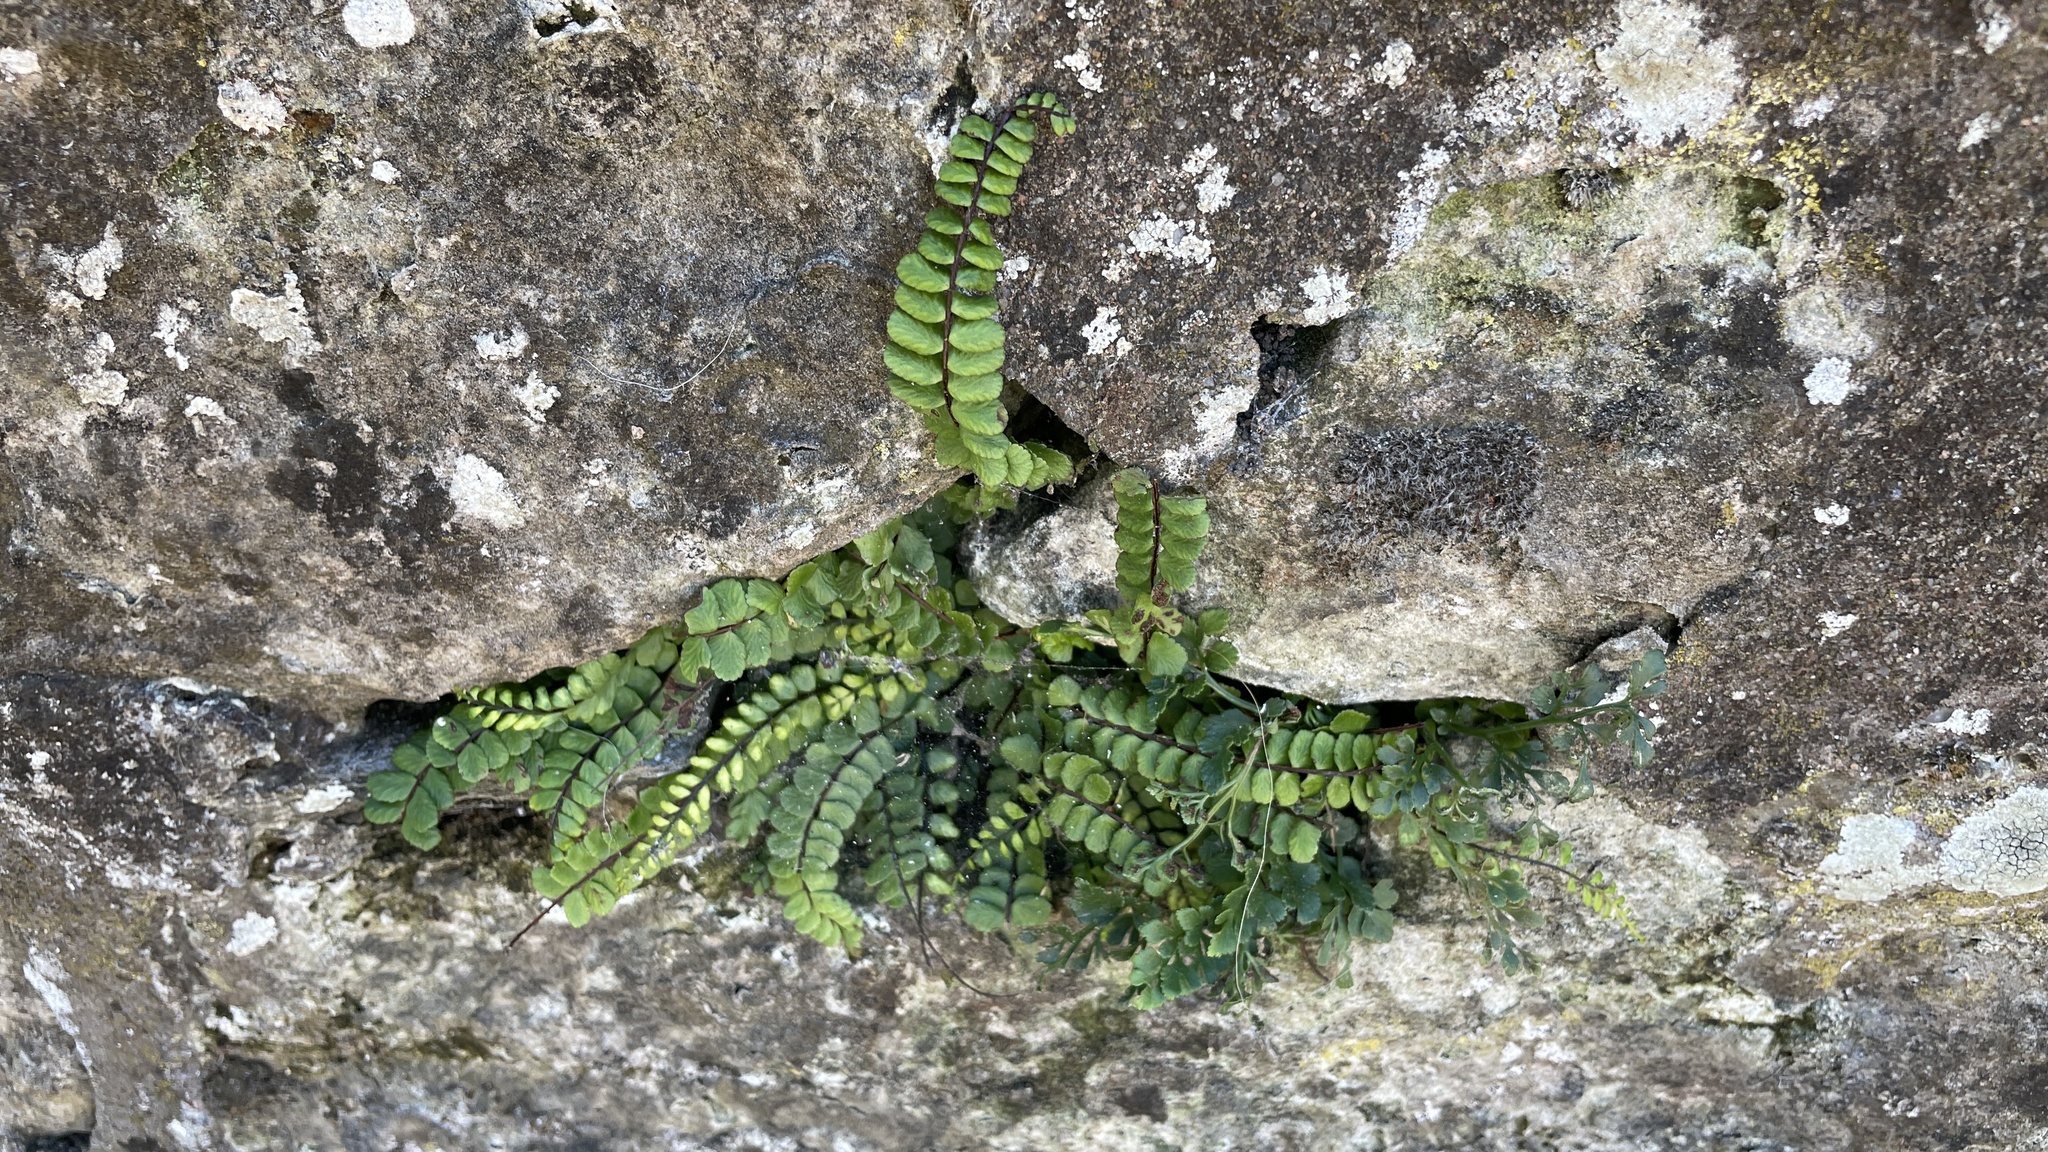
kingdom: Plantae
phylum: Tracheophyta
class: Polypodiopsida
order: Polypodiales
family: Aspleniaceae
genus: Asplenium
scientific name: Asplenium trichomanes
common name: Maidenhair spleenwort
